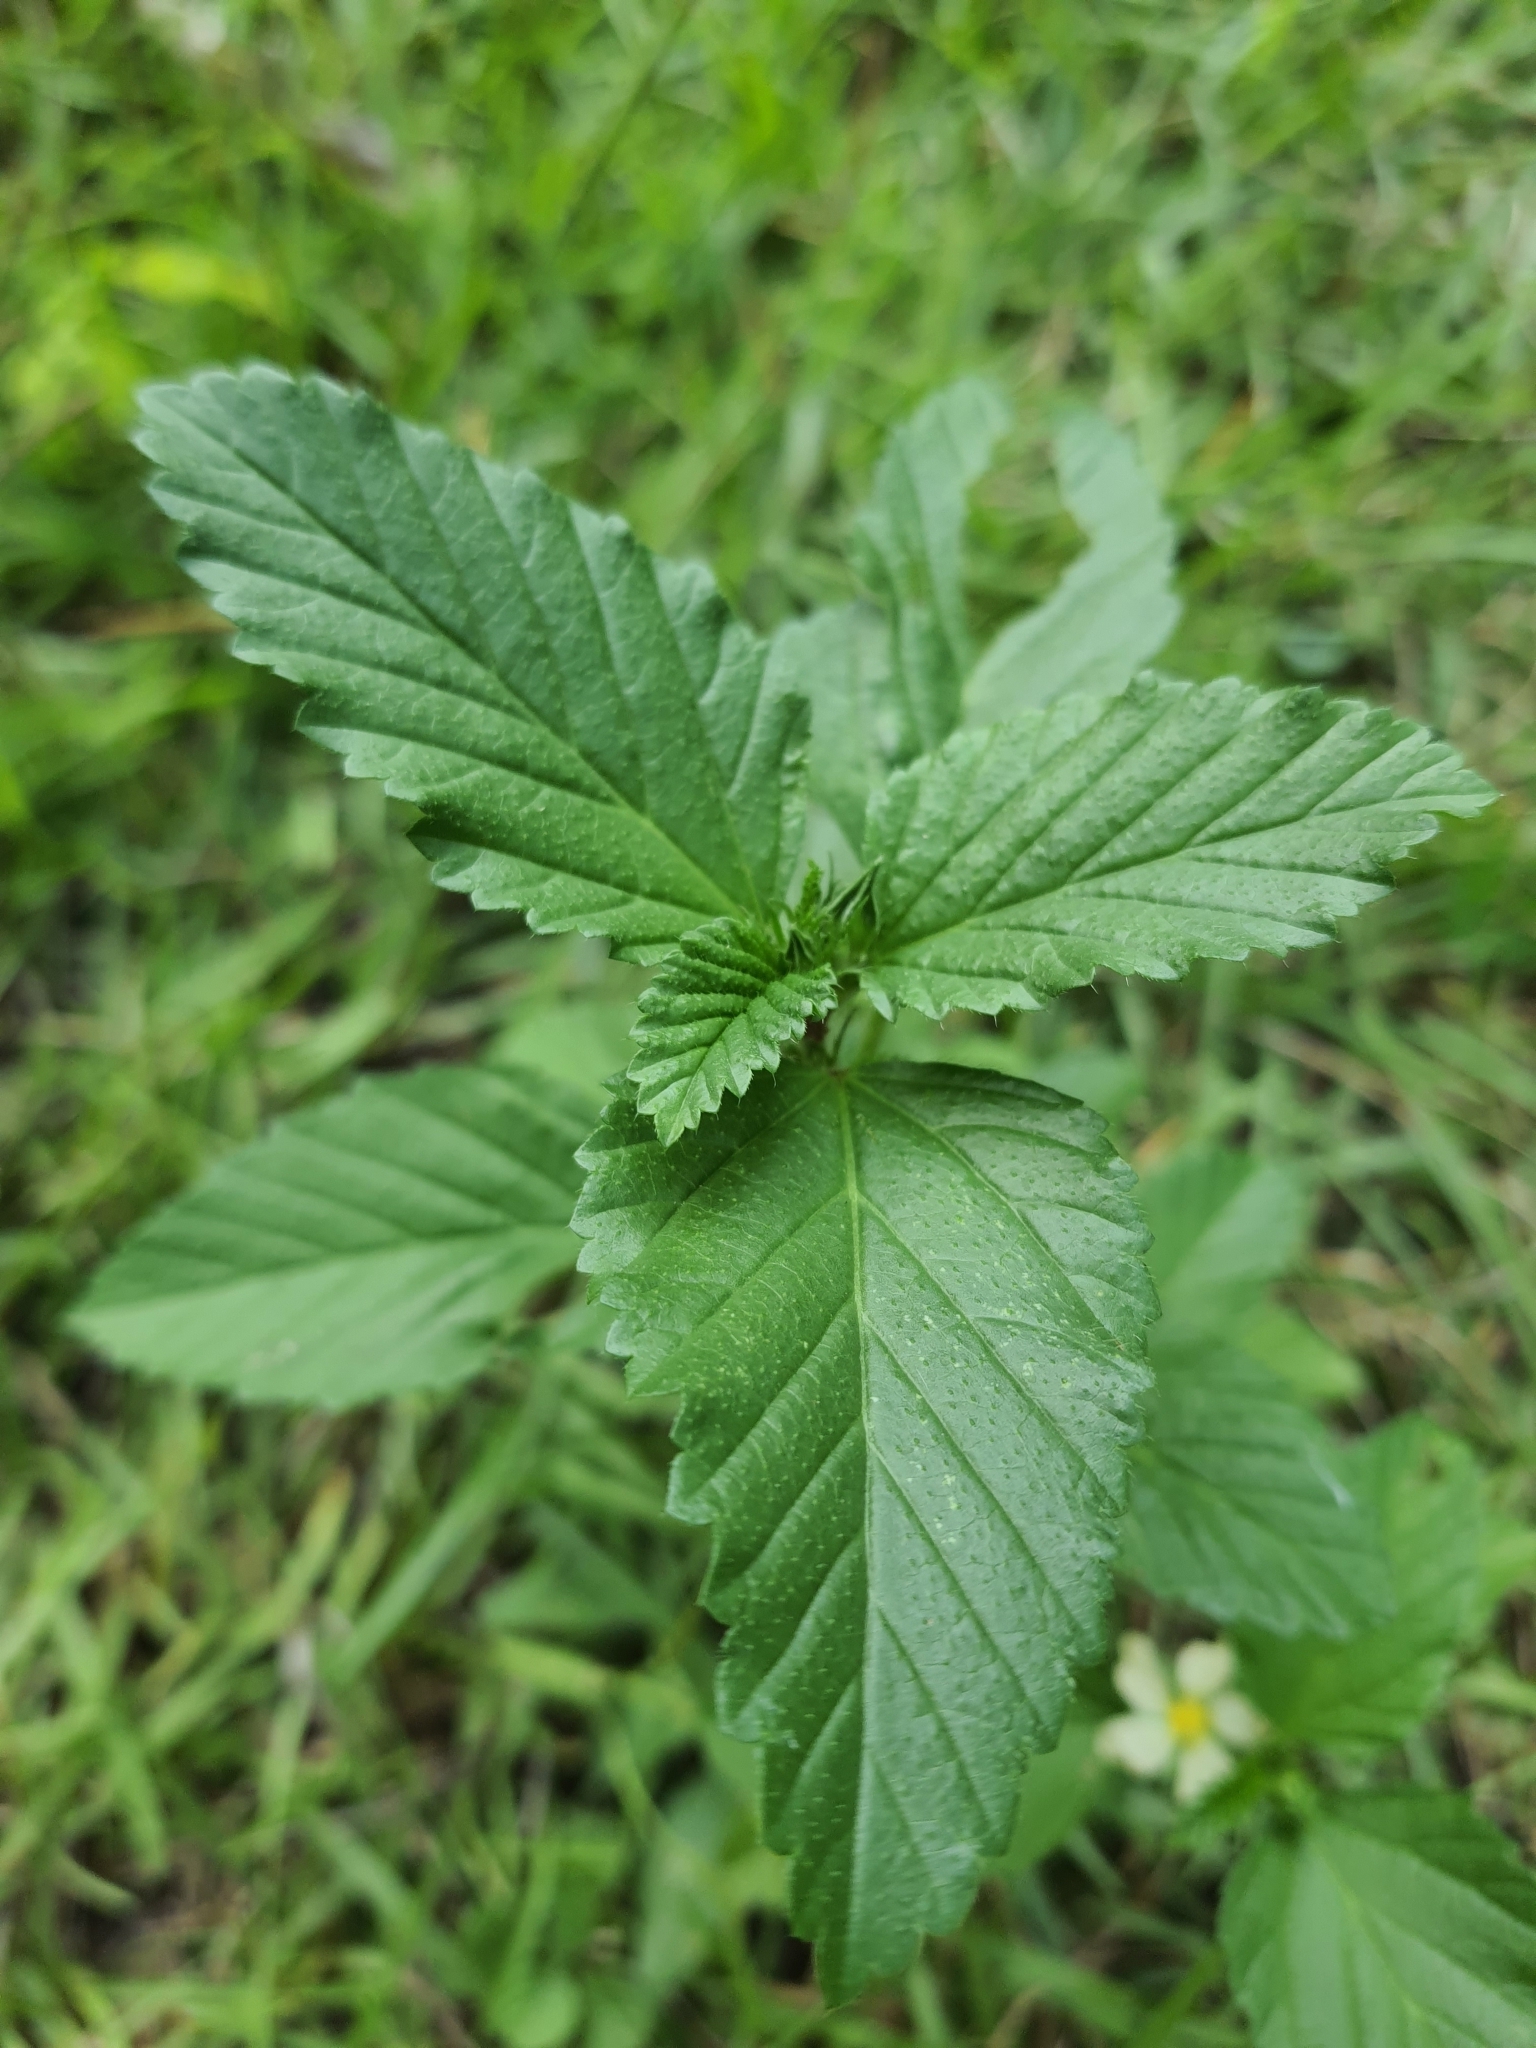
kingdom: Plantae
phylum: Tracheophyta
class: Magnoliopsida
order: Malvales
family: Malvaceae
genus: Malvastrum
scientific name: Malvastrum coromandelianum
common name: Threelobe false mallow
